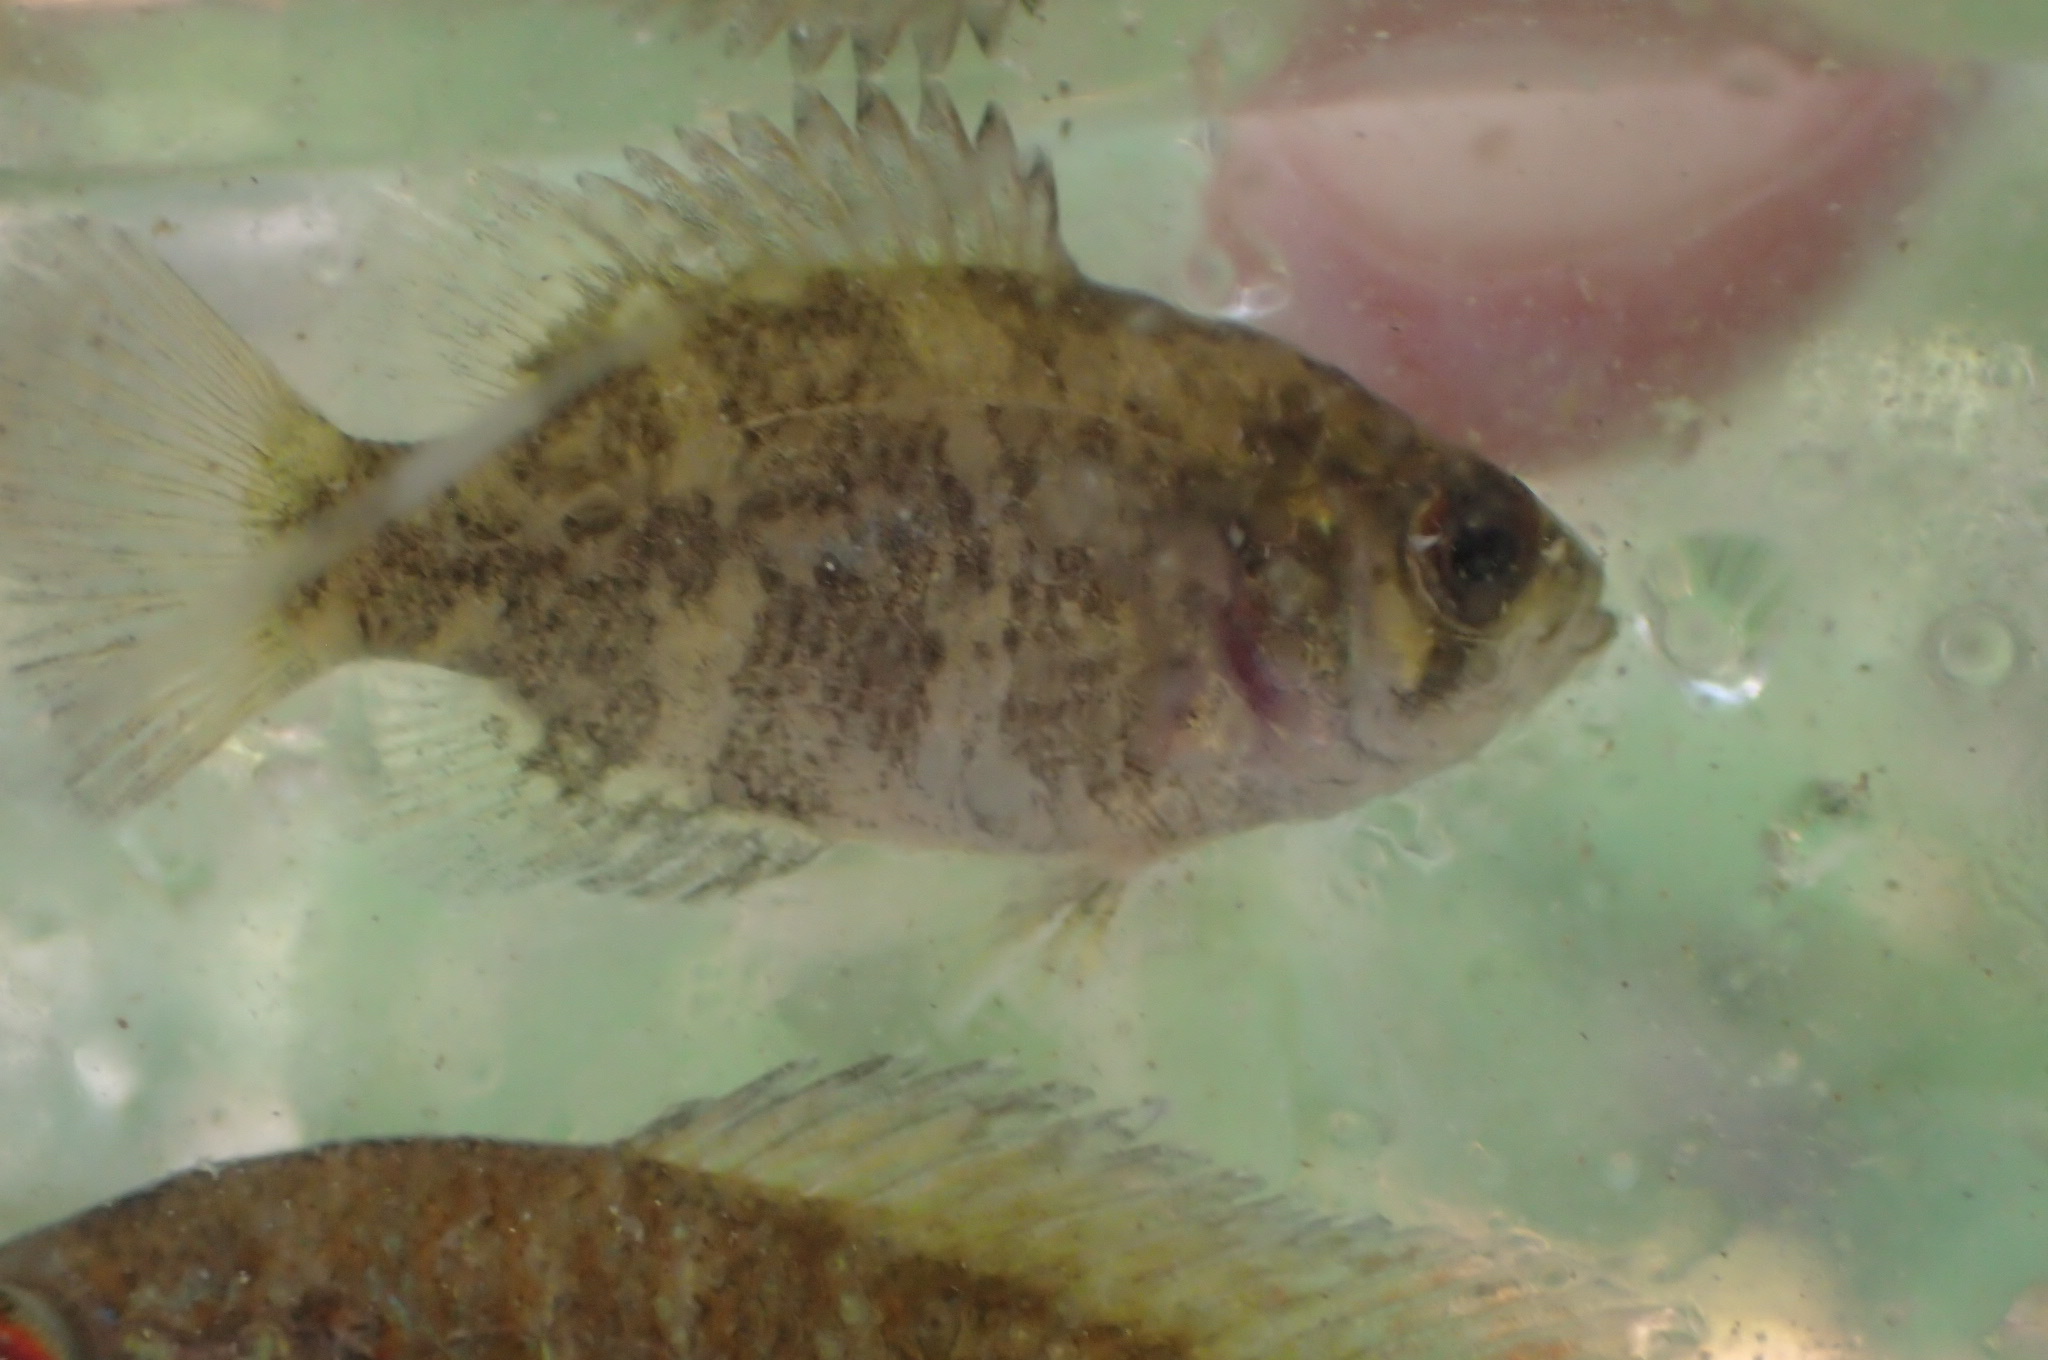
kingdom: Animalia
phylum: Chordata
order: Perciformes
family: Centrarchidae
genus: Ambloplites
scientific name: Ambloplites rupestris
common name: Rock bass
